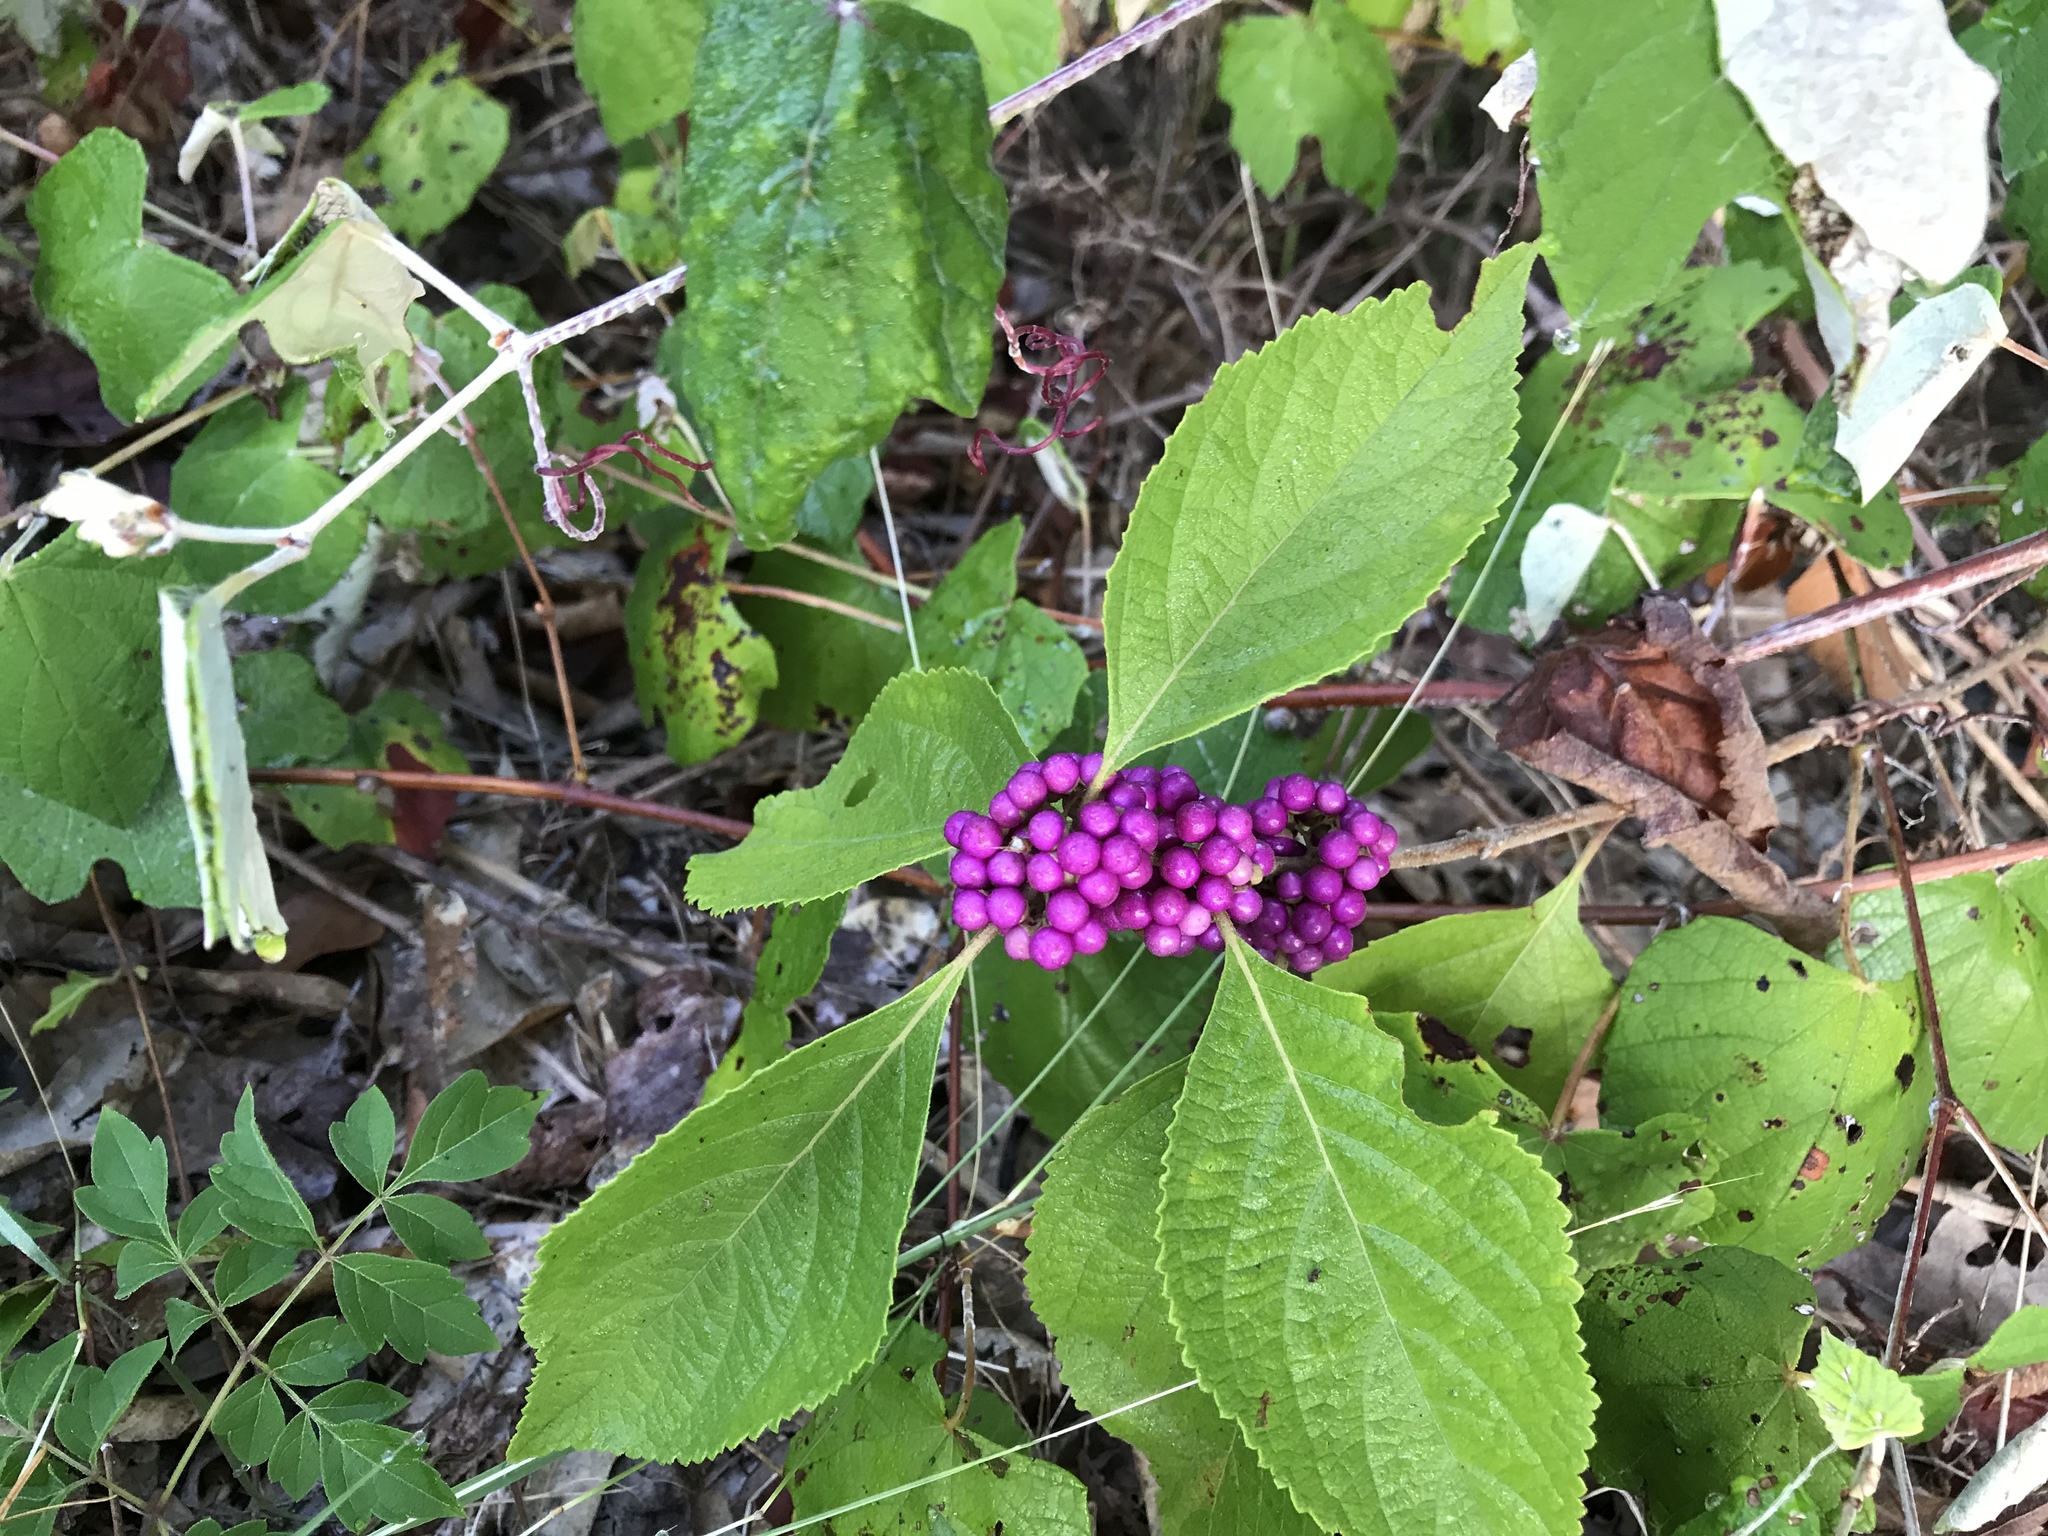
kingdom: Plantae
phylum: Tracheophyta
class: Magnoliopsida
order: Lamiales
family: Lamiaceae
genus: Callicarpa
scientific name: Callicarpa americana
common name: American beautyberry
